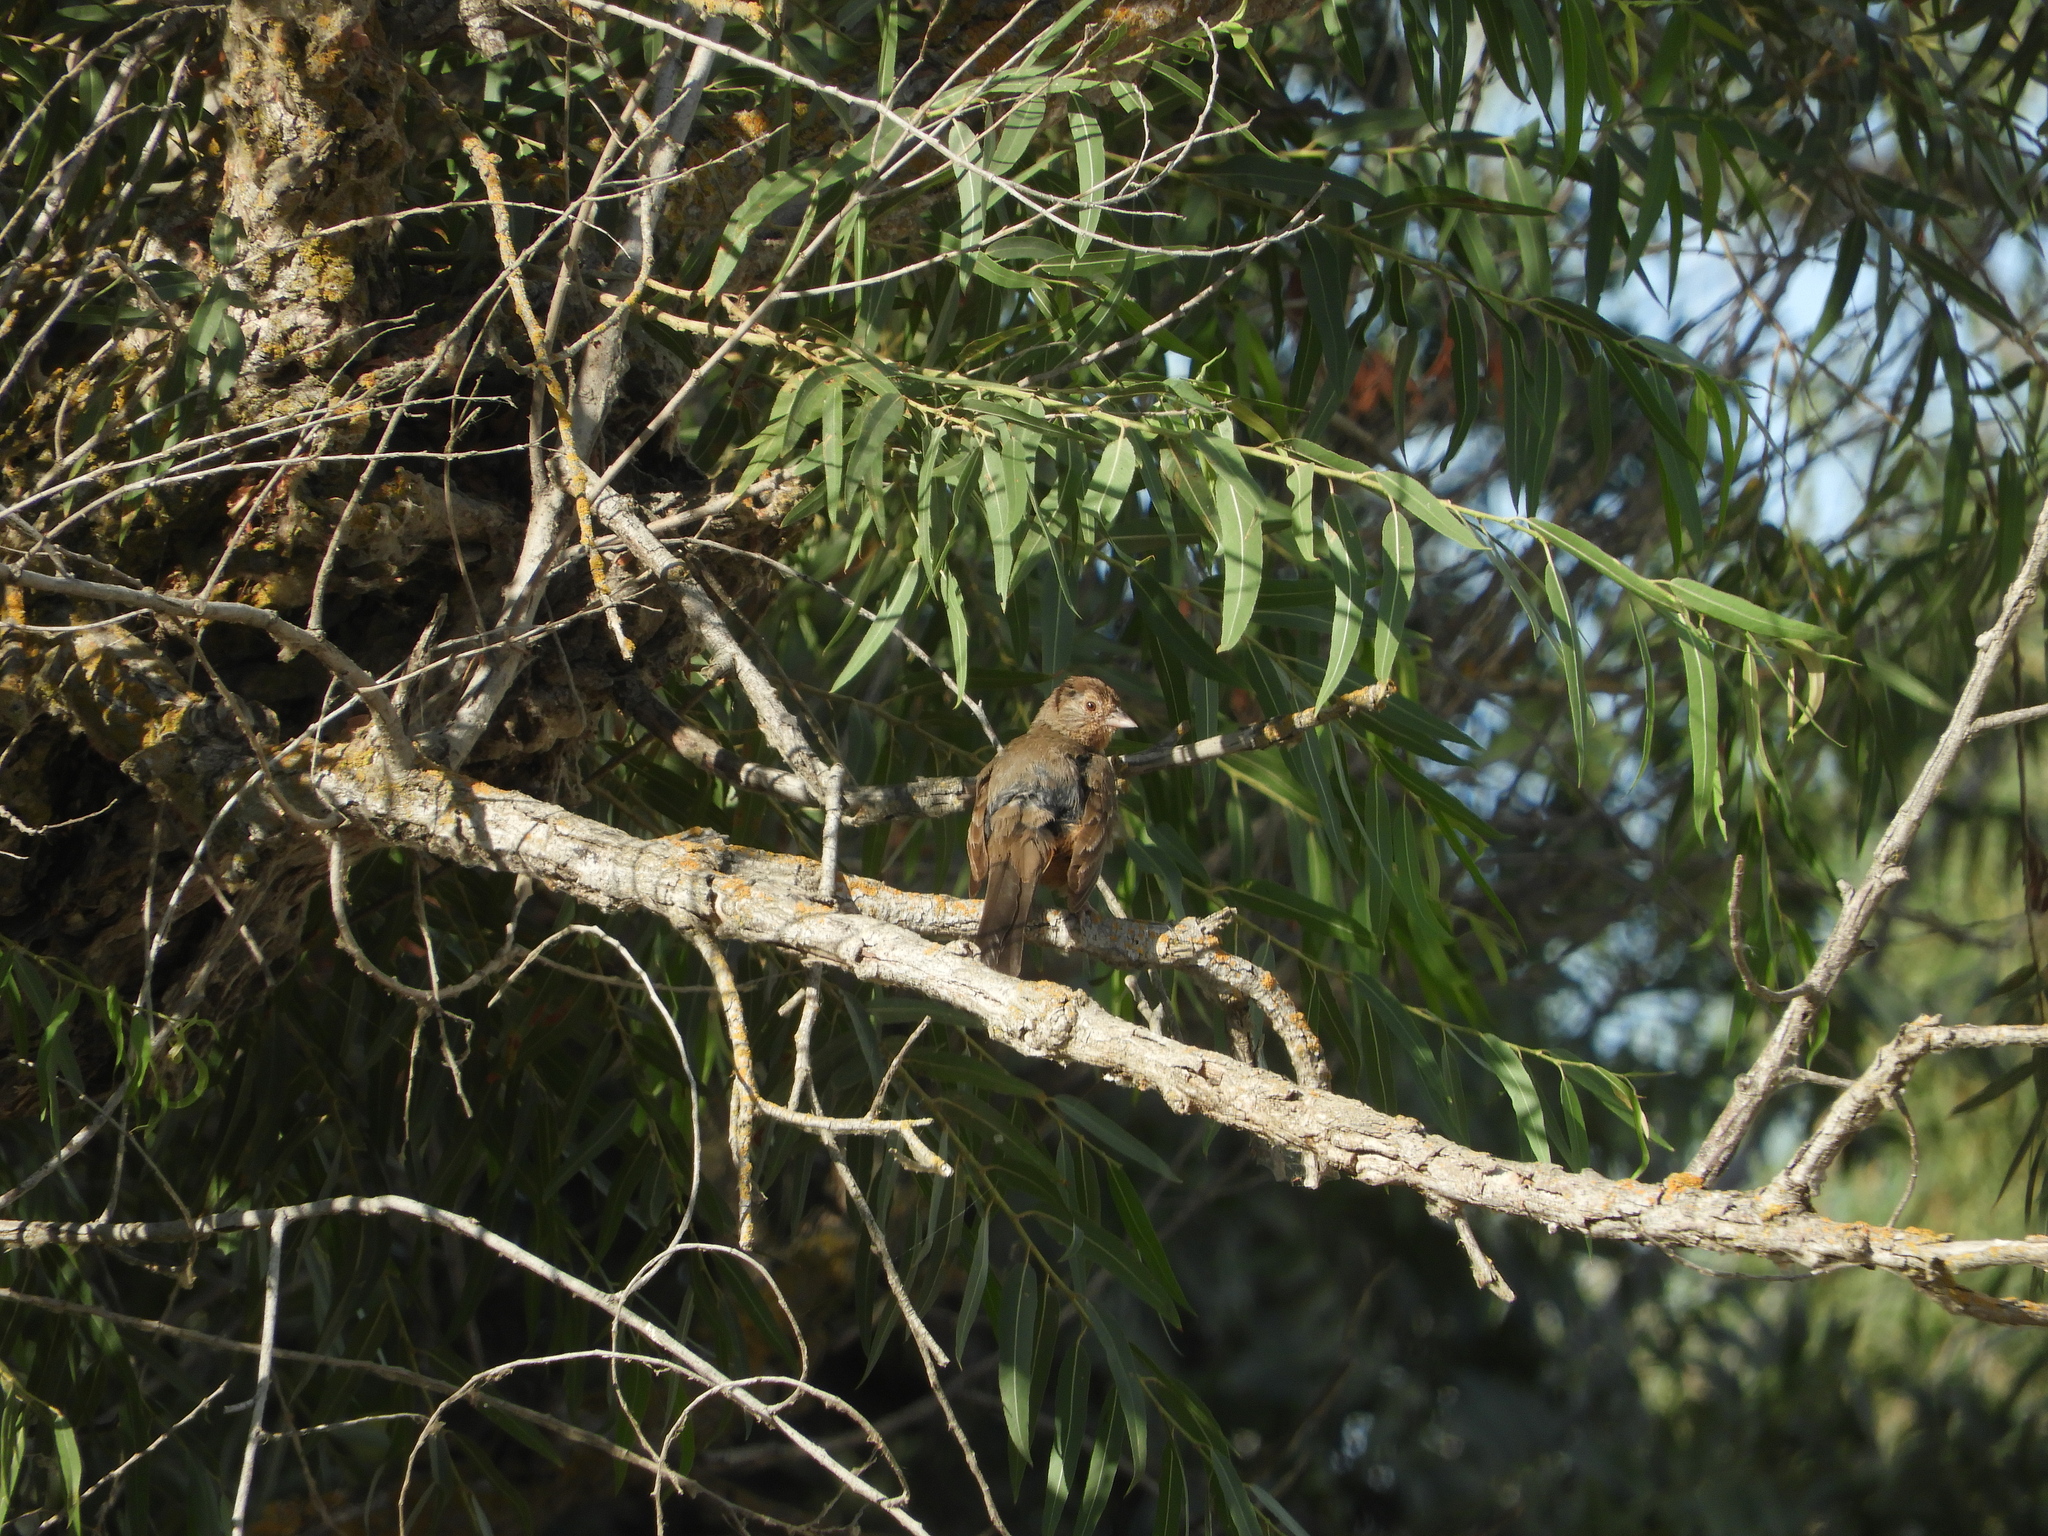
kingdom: Animalia
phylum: Chordata
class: Aves
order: Passeriformes
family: Passerellidae
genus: Melozone
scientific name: Melozone crissalis
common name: California towhee
